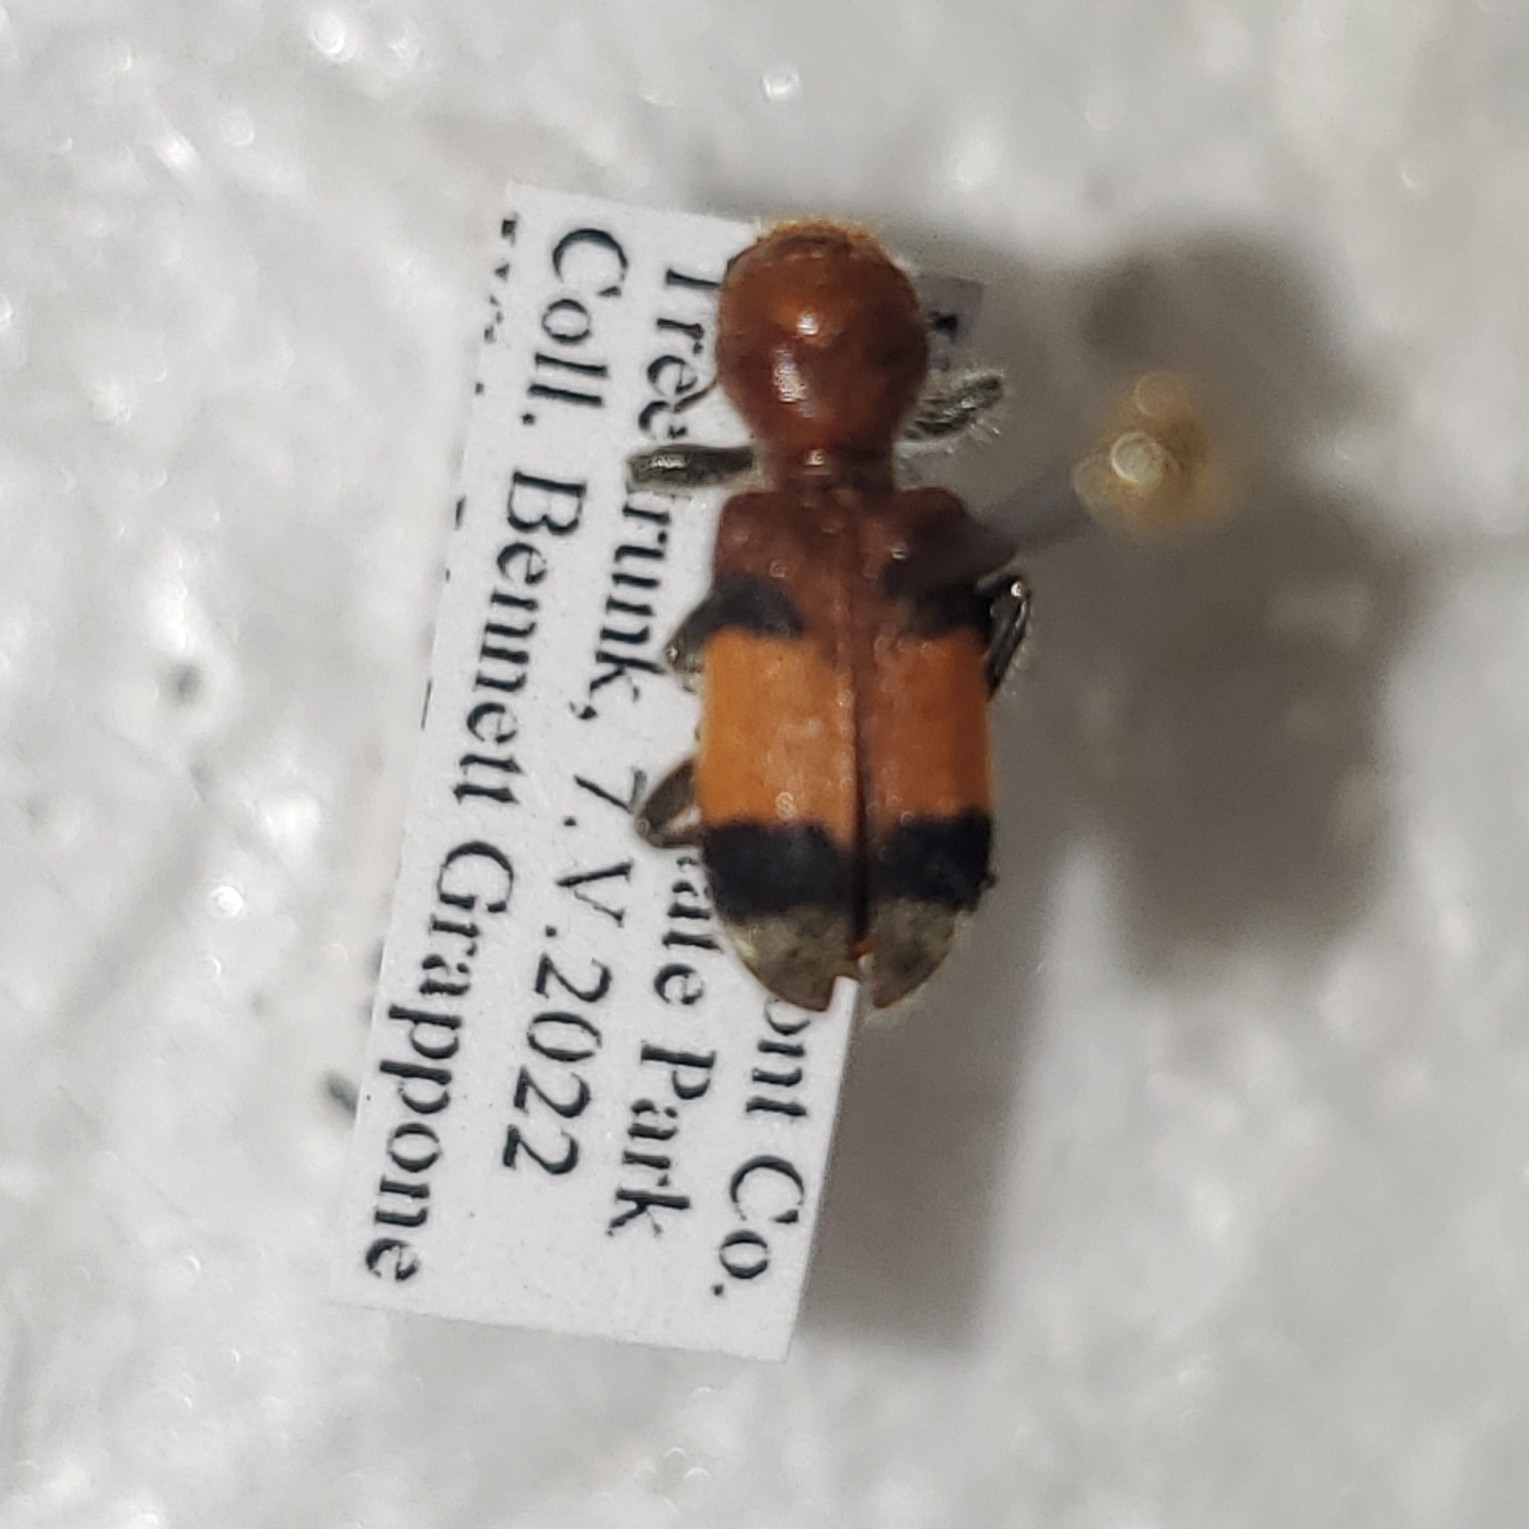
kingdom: Animalia
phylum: Arthropoda
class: Insecta
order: Coleoptera
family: Cleridae
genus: Enoclerus
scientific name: Enoclerus ichneumoneus
